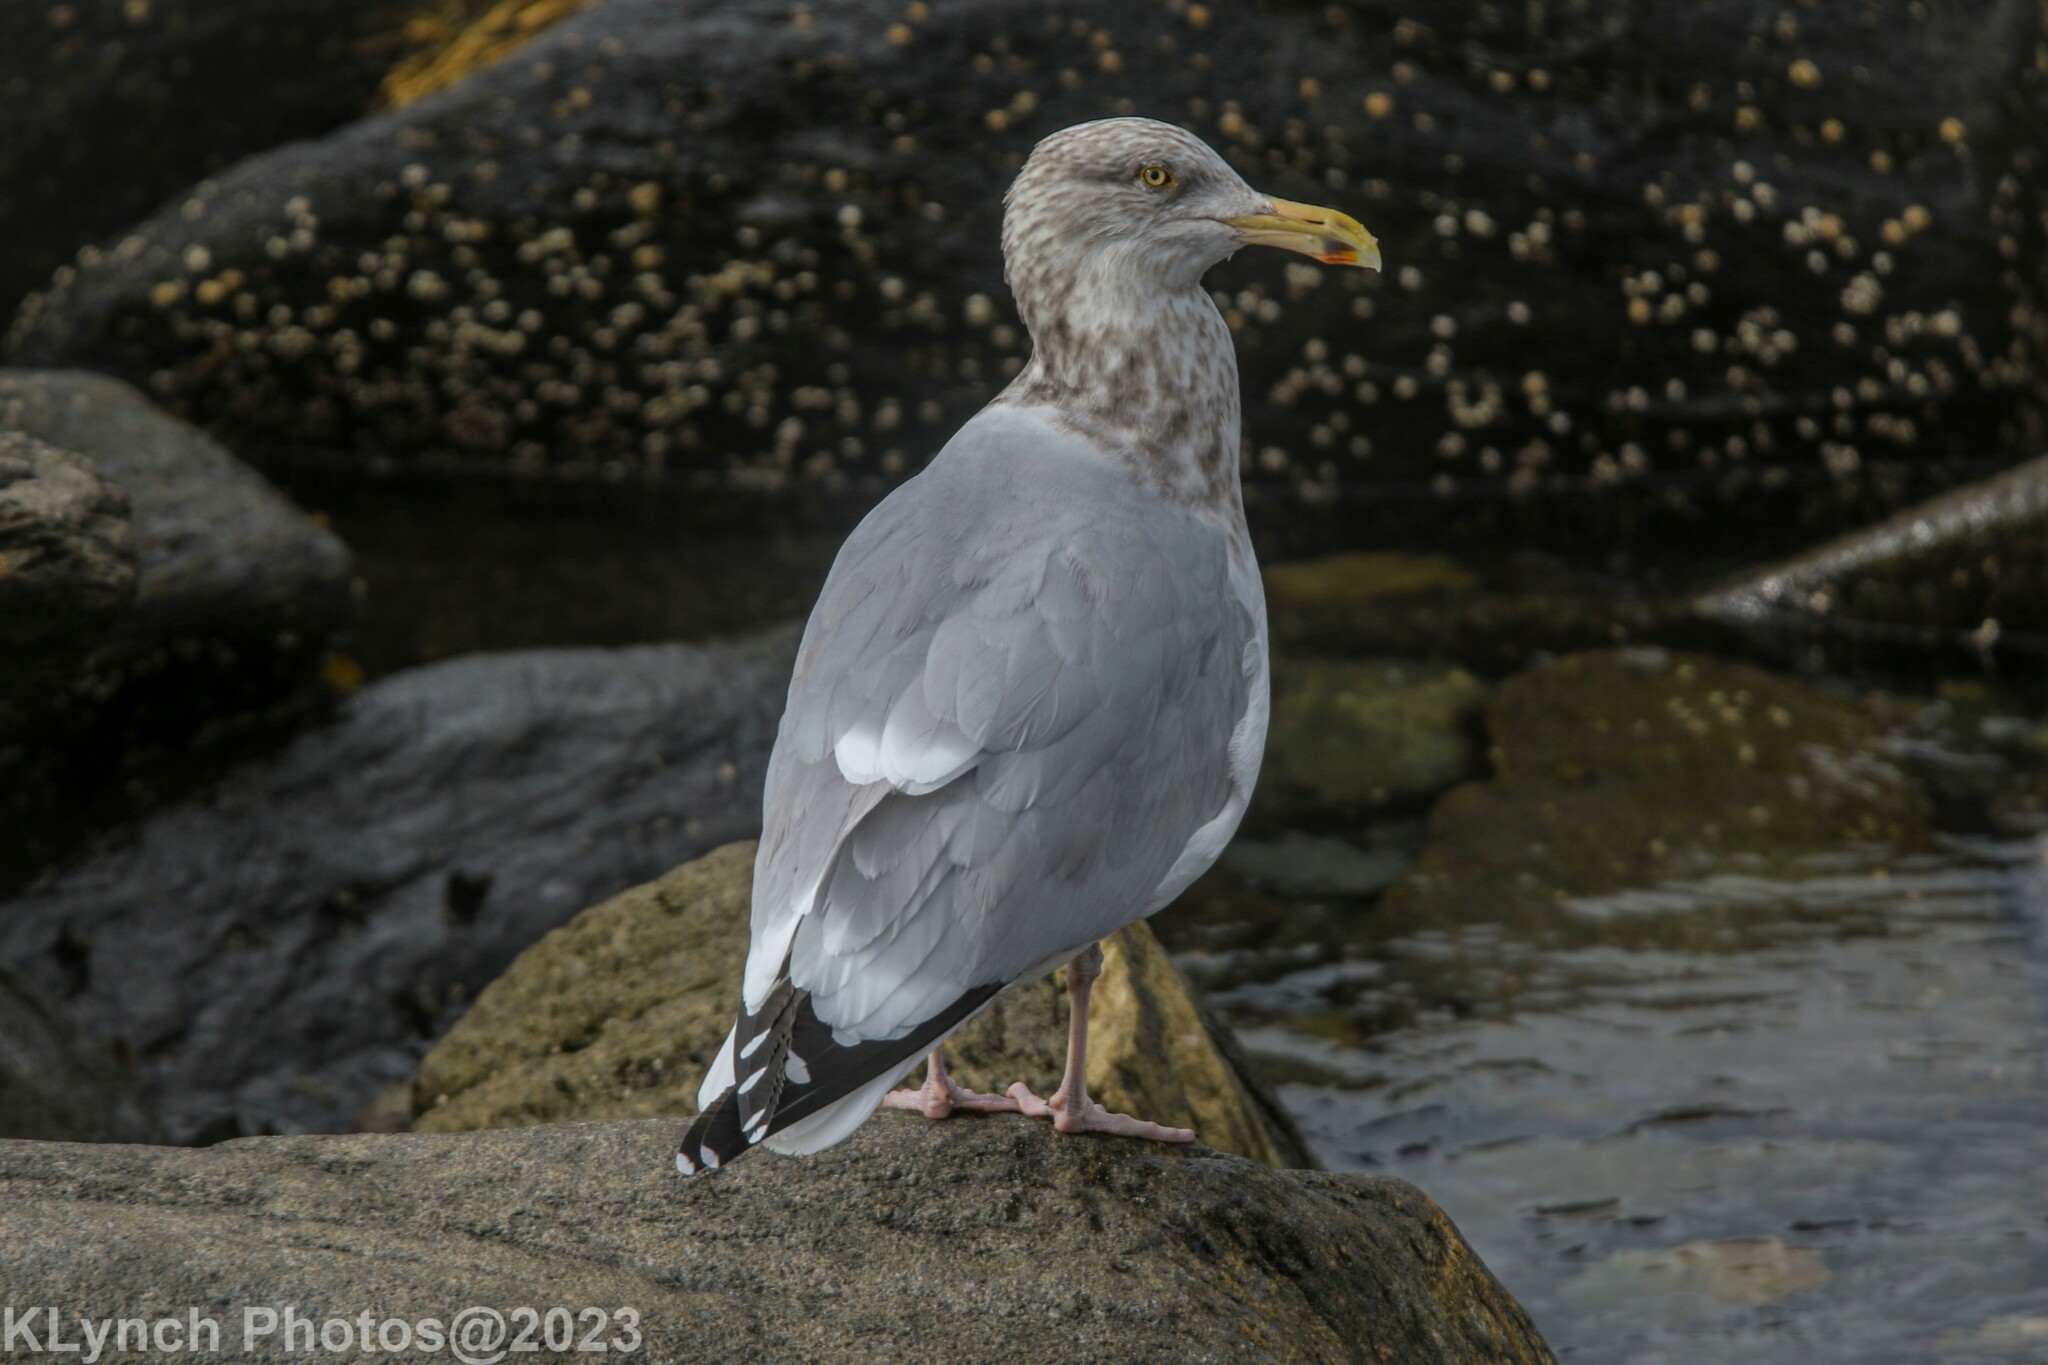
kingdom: Animalia
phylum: Chordata
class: Aves
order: Charadriiformes
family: Laridae
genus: Larus
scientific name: Larus argentatus
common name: Herring gull
